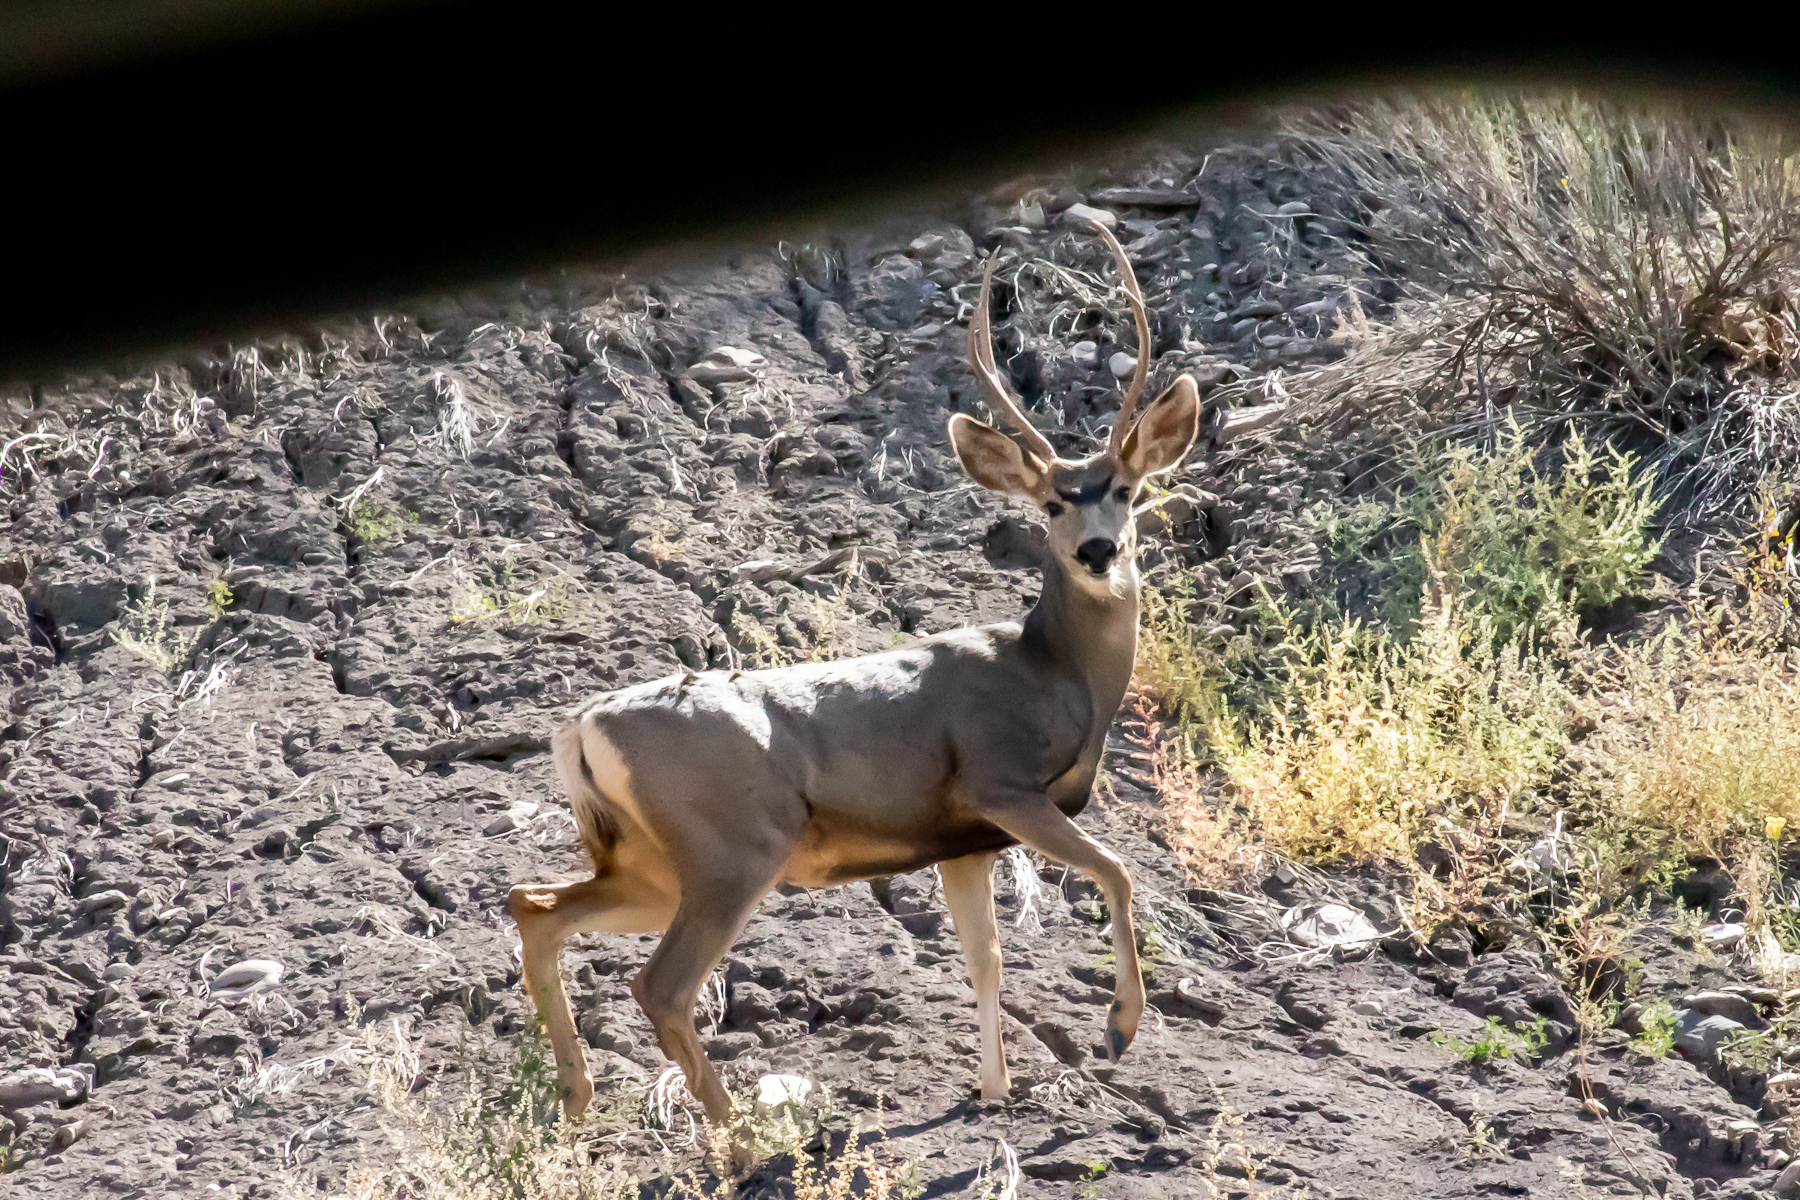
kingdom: Animalia
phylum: Chordata
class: Mammalia
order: Artiodactyla
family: Cervidae
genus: Odocoileus
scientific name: Odocoileus hemionus
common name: Mule deer
